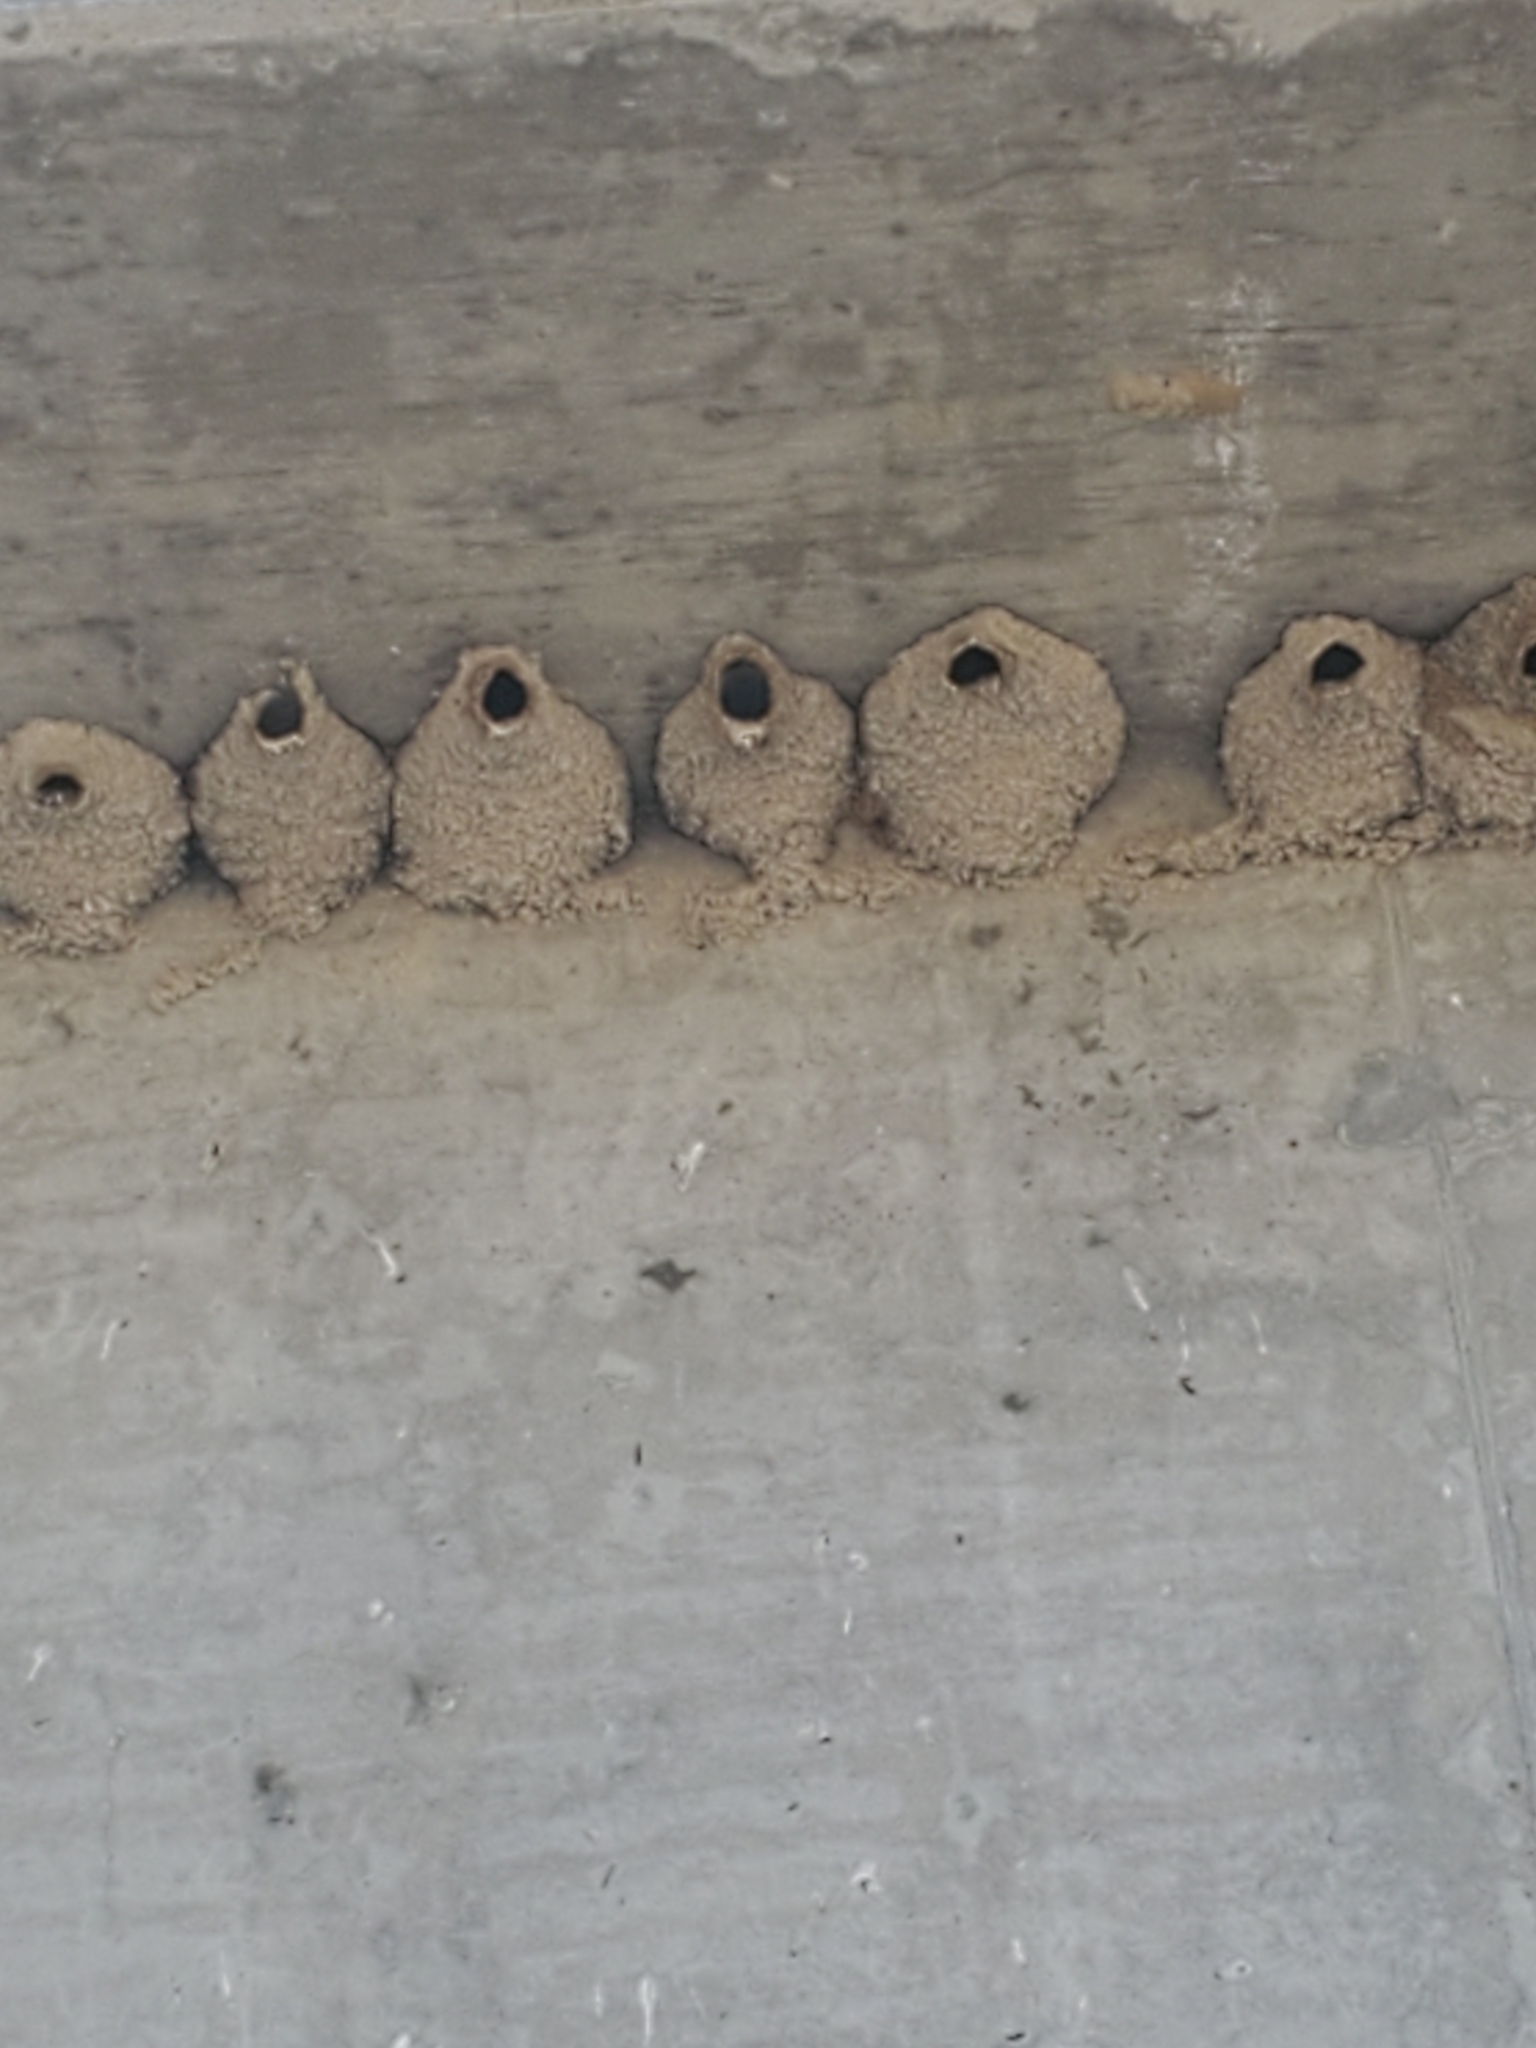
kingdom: Animalia
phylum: Chordata
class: Aves
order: Passeriformes
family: Hirundinidae
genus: Petrochelidon
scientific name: Petrochelidon pyrrhonota
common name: American cliff swallow
